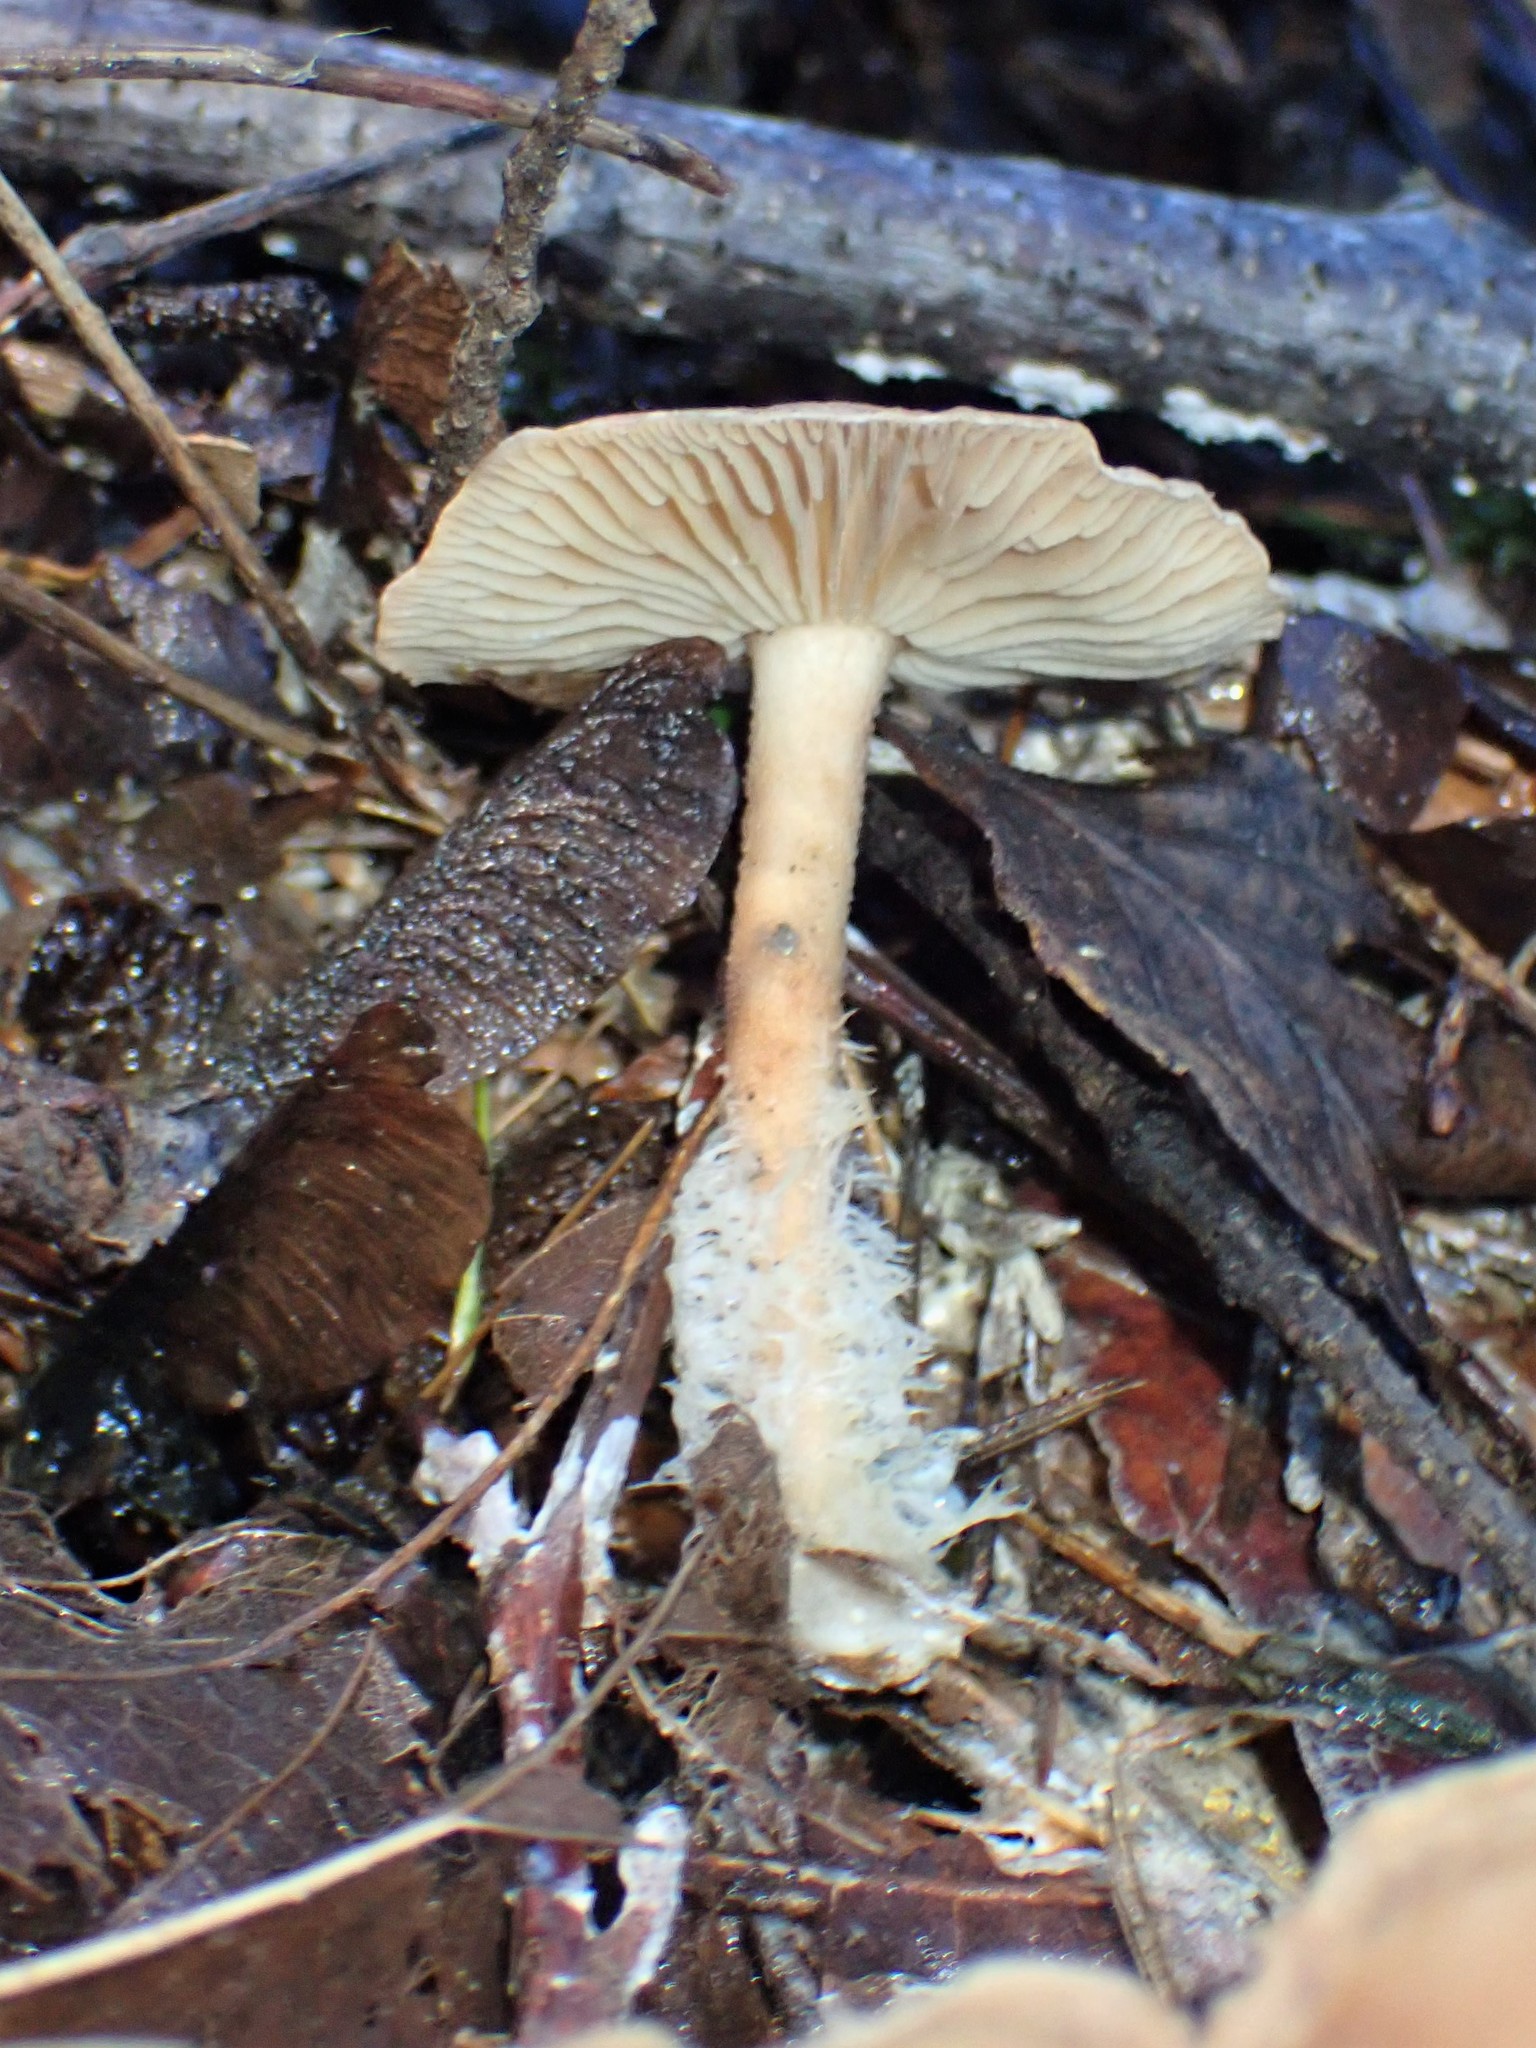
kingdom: Fungi
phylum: Basidiomycota
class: Agaricomycetes
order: Agaricales
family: Omphalotaceae
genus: Collybiopsis
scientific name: Collybiopsis peronata
